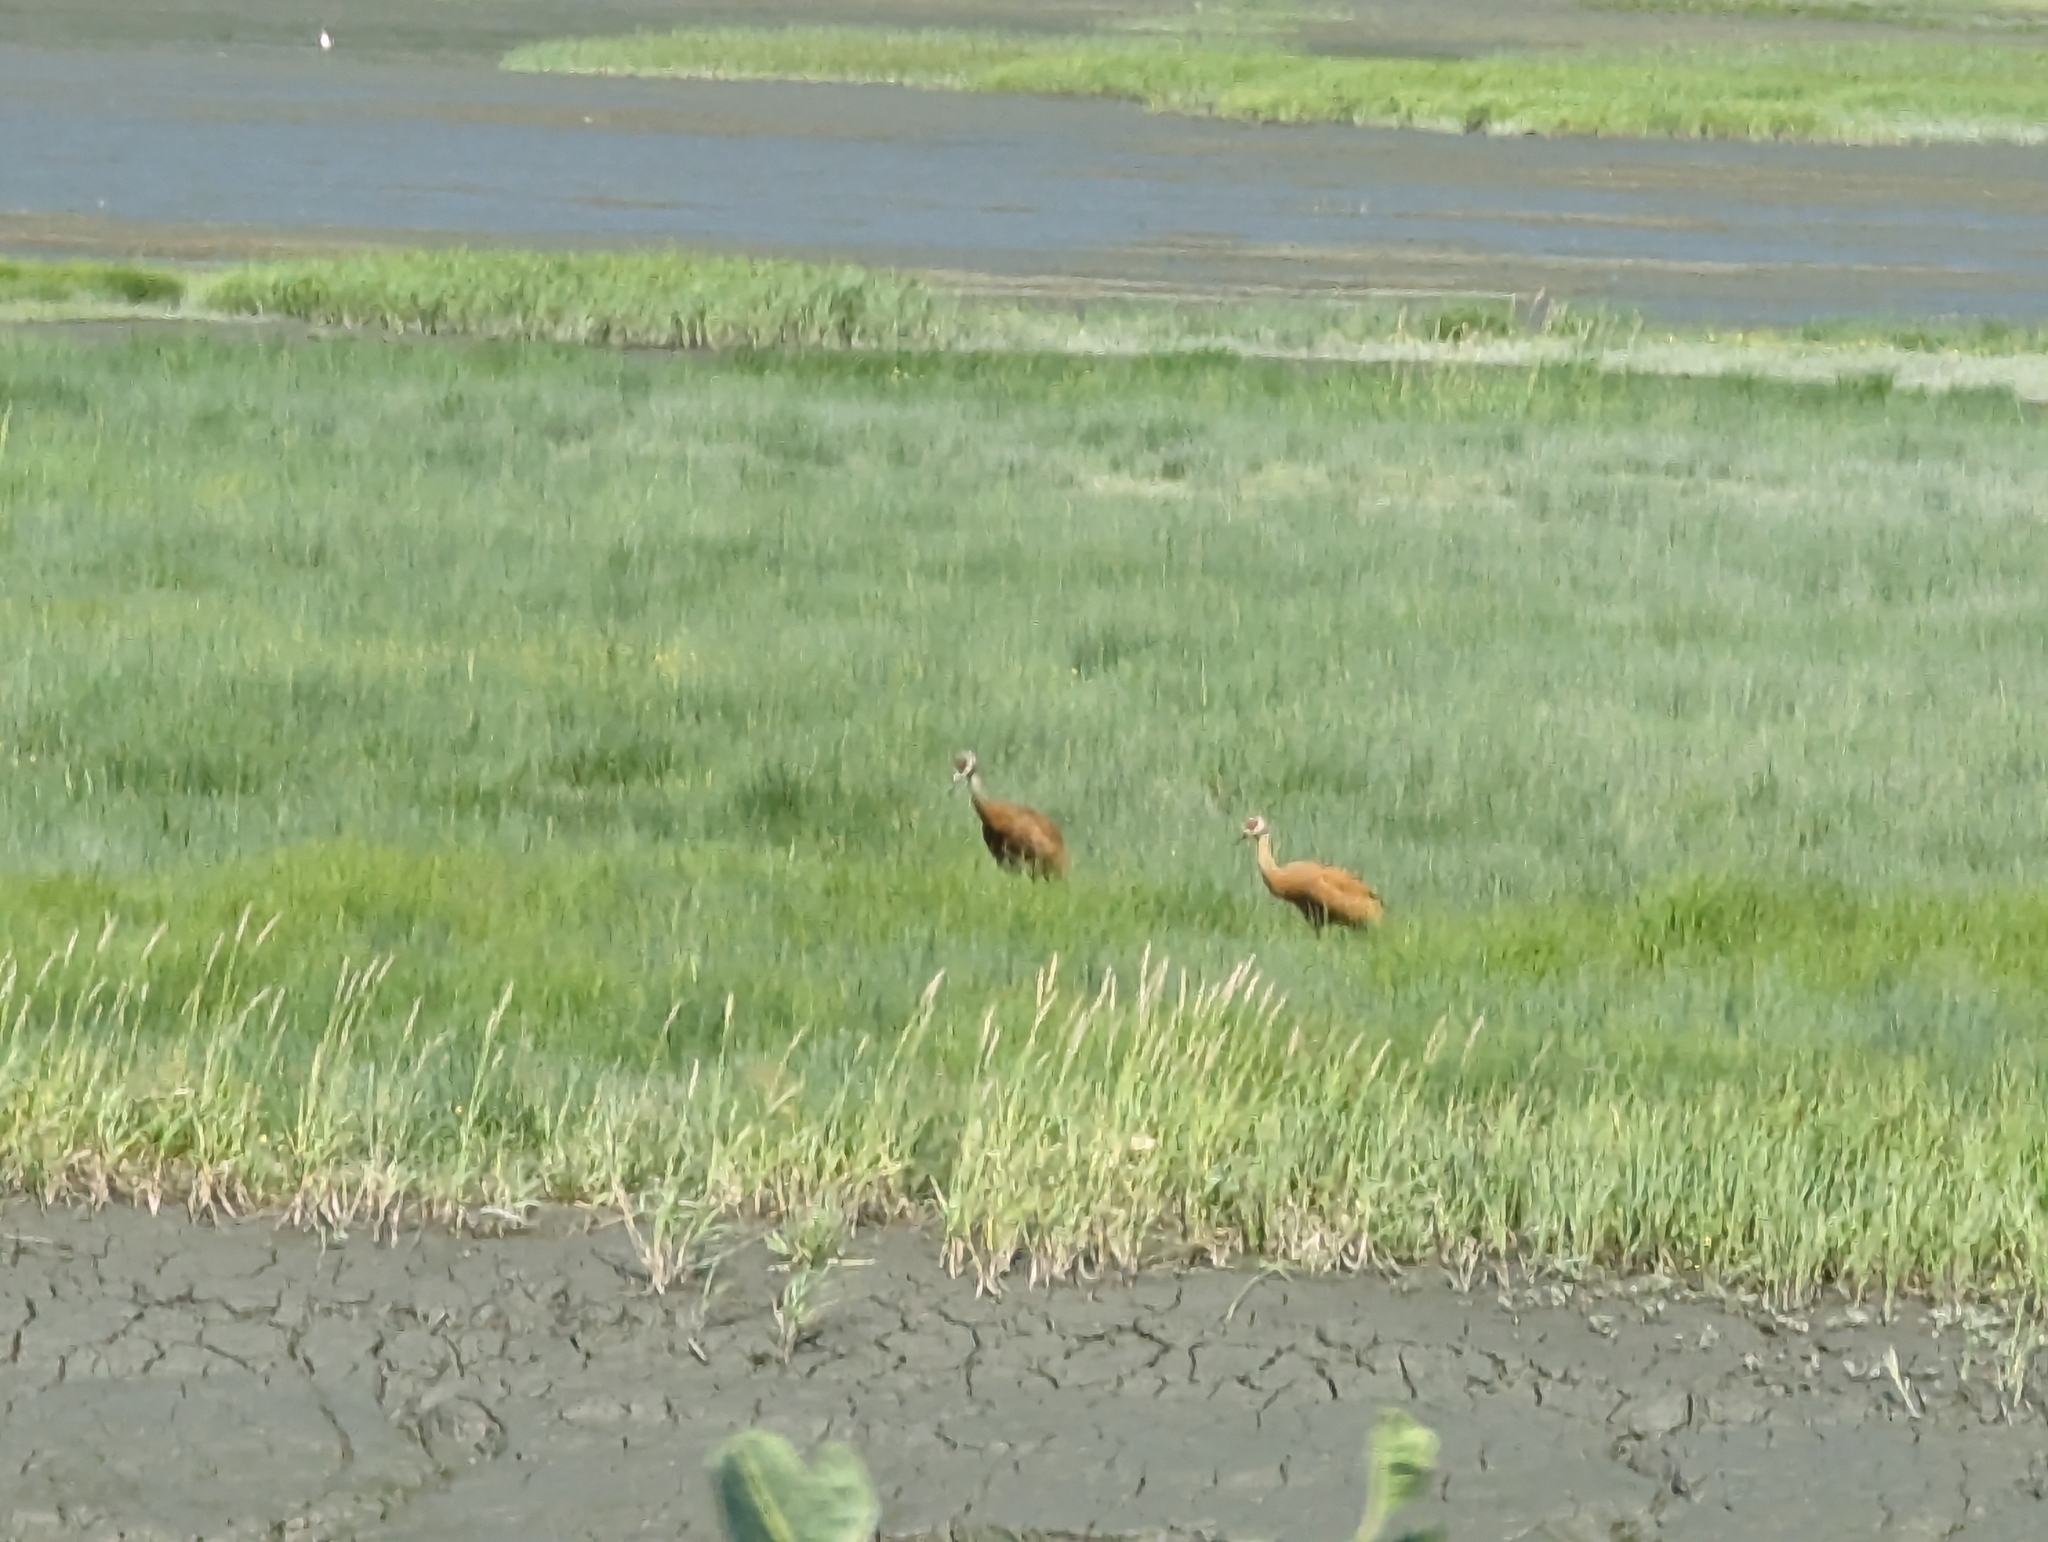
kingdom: Animalia
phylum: Chordata
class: Aves
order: Gruiformes
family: Gruidae
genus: Grus
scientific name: Grus canadensis
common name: Sandhill crane
